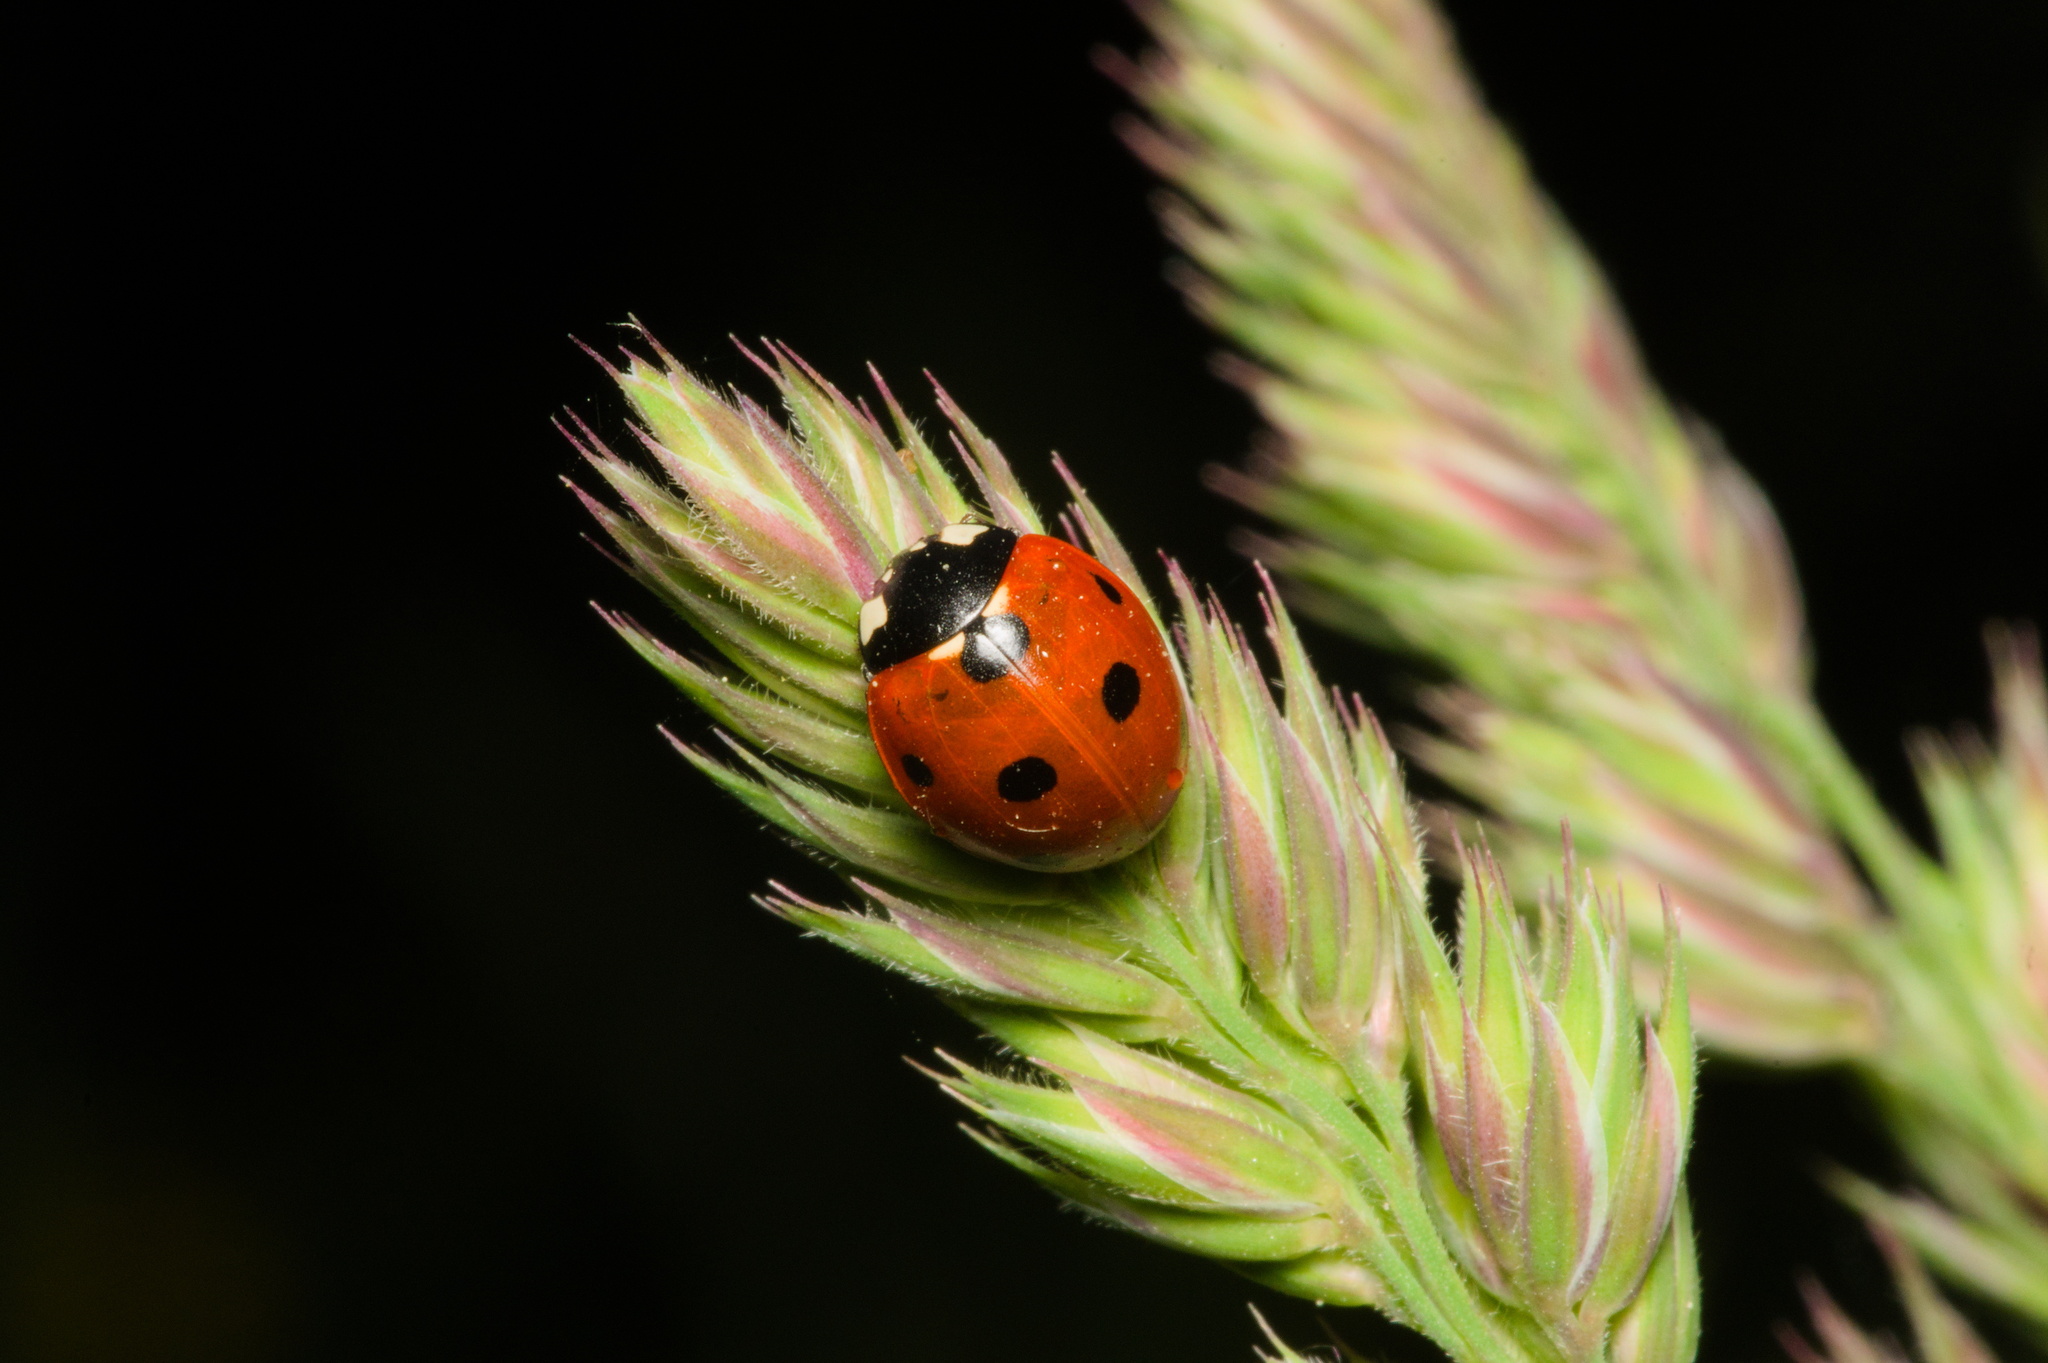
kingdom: Animalia
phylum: Arthropoda
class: Insecta
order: Coleoptera
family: Coccinellidae
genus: Coccinella
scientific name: Coccinella septempunctata
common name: Sevenspotted lady beetle
